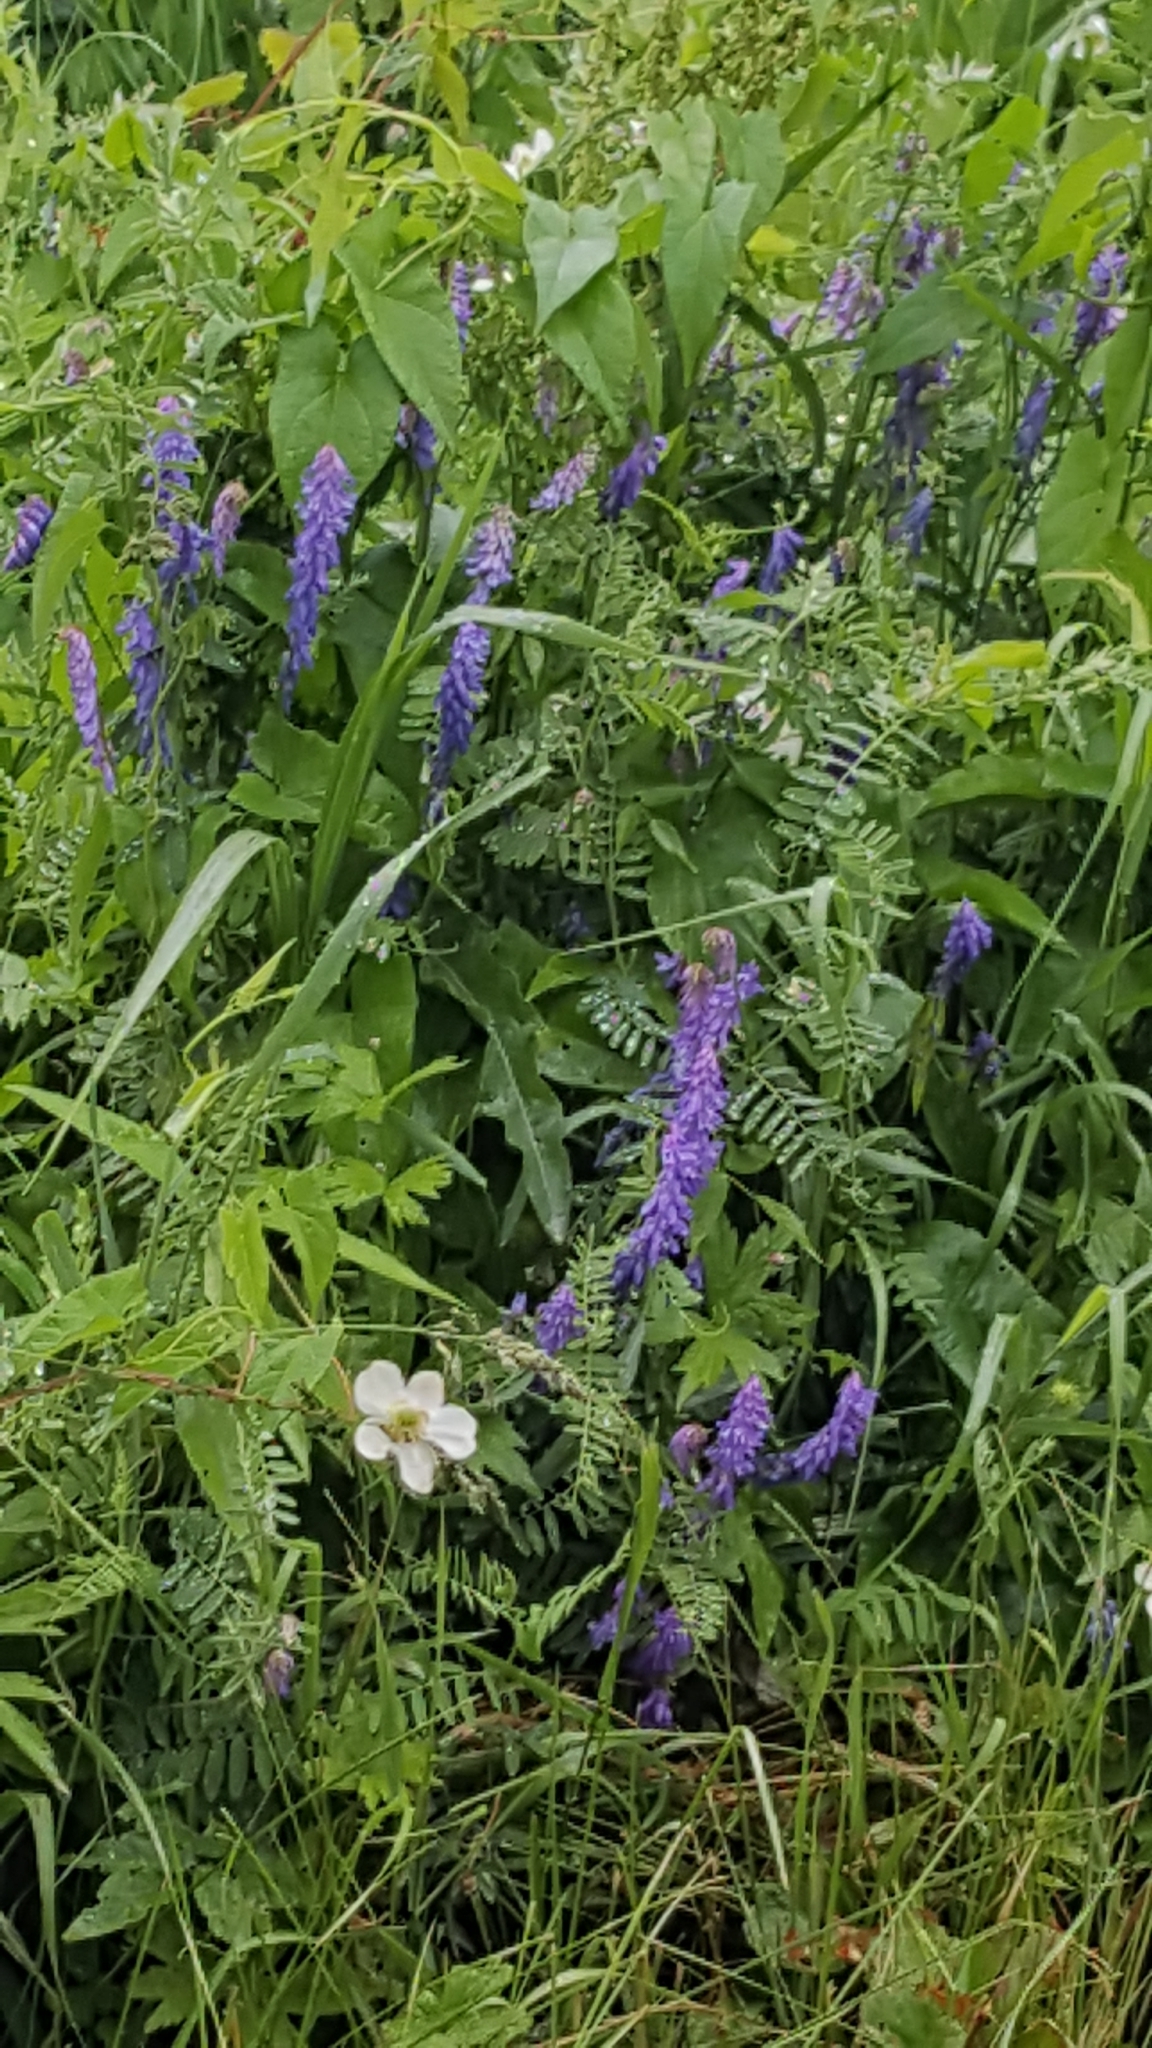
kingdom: Plantae
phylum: Tracheophyta
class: Magnoliopsida
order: Fabales
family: Fabaceae
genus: Vicia
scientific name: Vicia cracca
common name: Bird vetch
